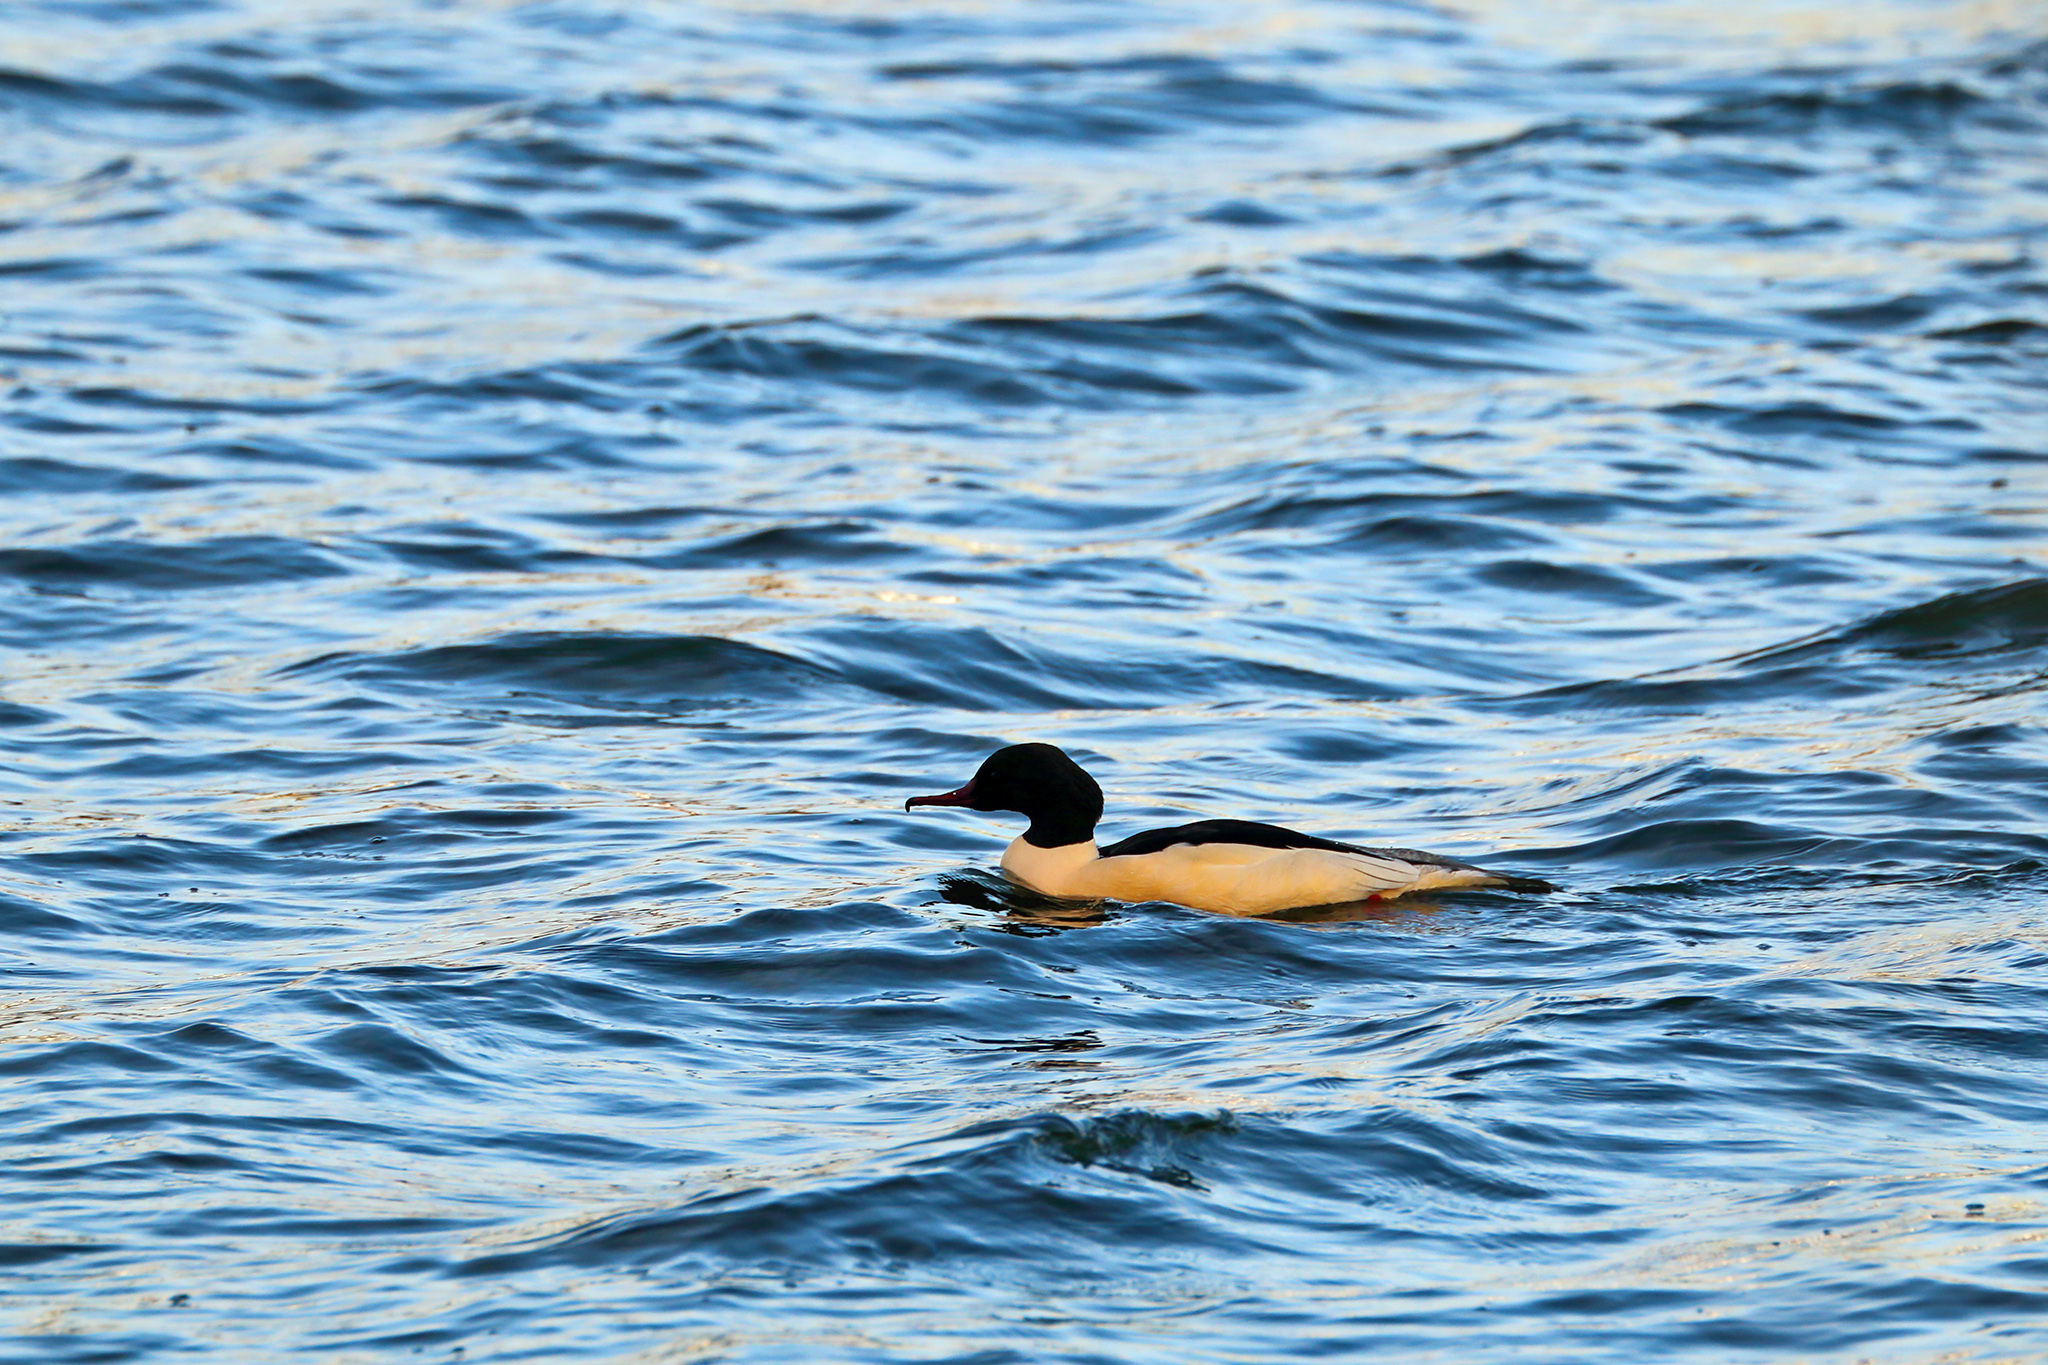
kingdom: Animalia
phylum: Chordata
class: Aves
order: Anseriformes
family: Anatidae
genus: Mergus
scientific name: Mergus merganser
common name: Common merganser
